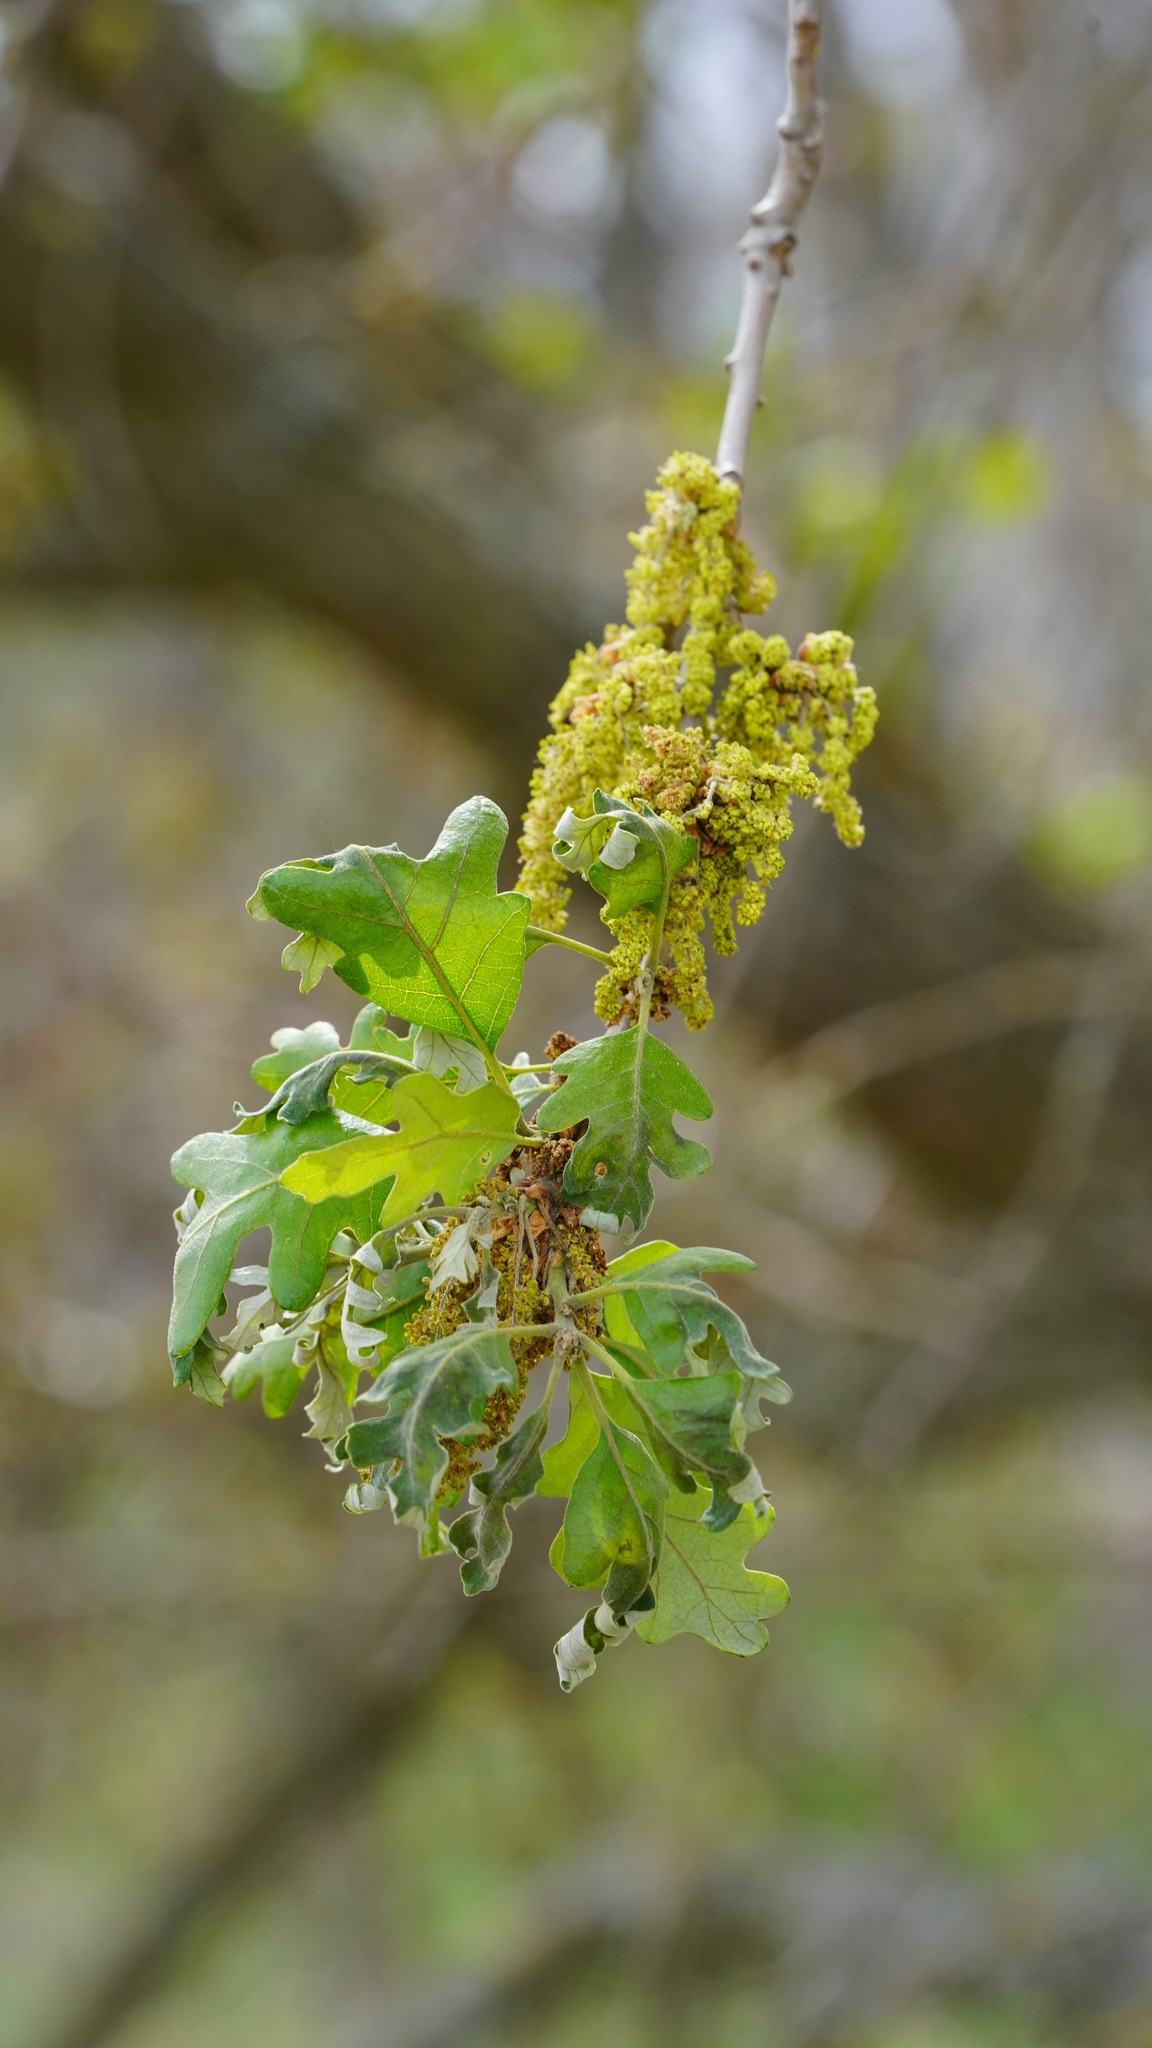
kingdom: Plantae
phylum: Tracheophyta
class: Magnoliopsida
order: Fagales
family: Fagaceae
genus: Quercus
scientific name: Quercus lobata
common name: Valley oak
